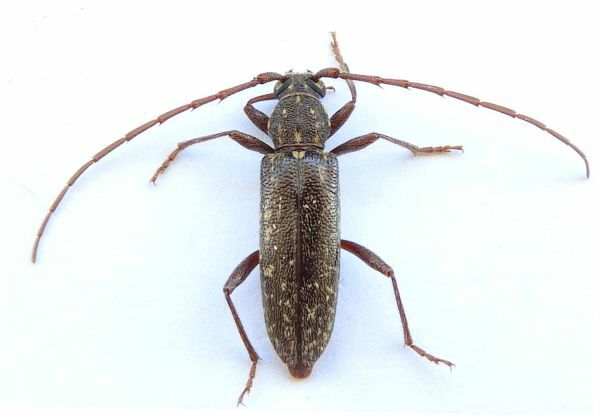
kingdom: Animalia
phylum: Arthropoda
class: Insecta
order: Coleoptera
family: Cerambycidae
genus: Orwellion
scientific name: Orwellion gibbulum
